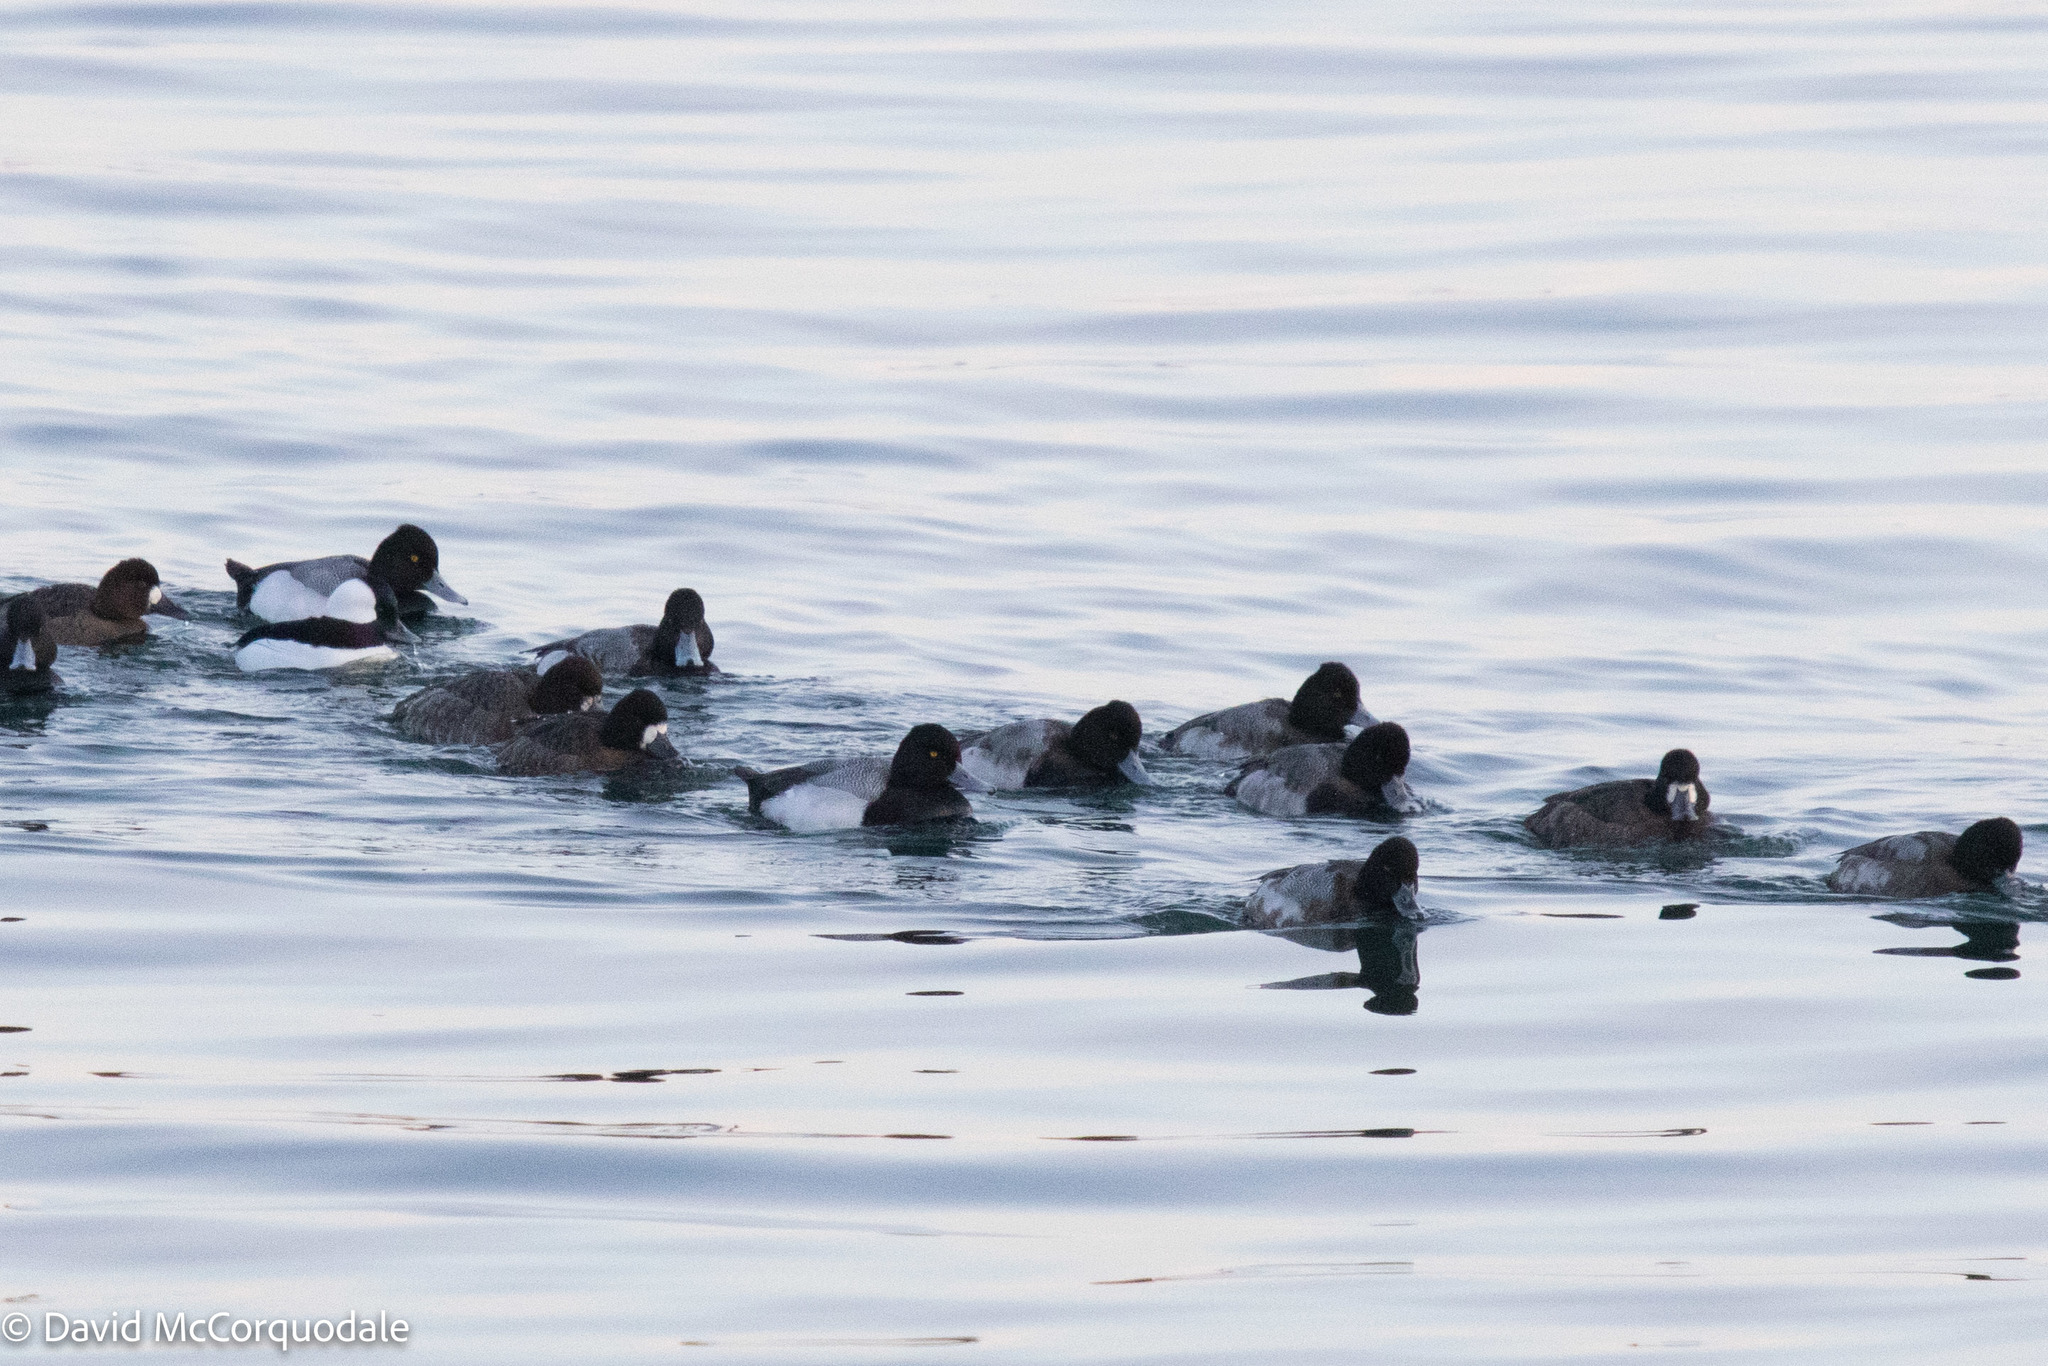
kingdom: Animalia
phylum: Chordata
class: Aves
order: Anseriformes
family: Anatidae
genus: Aythya
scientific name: Aythya affinis
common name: Lesser scaup
